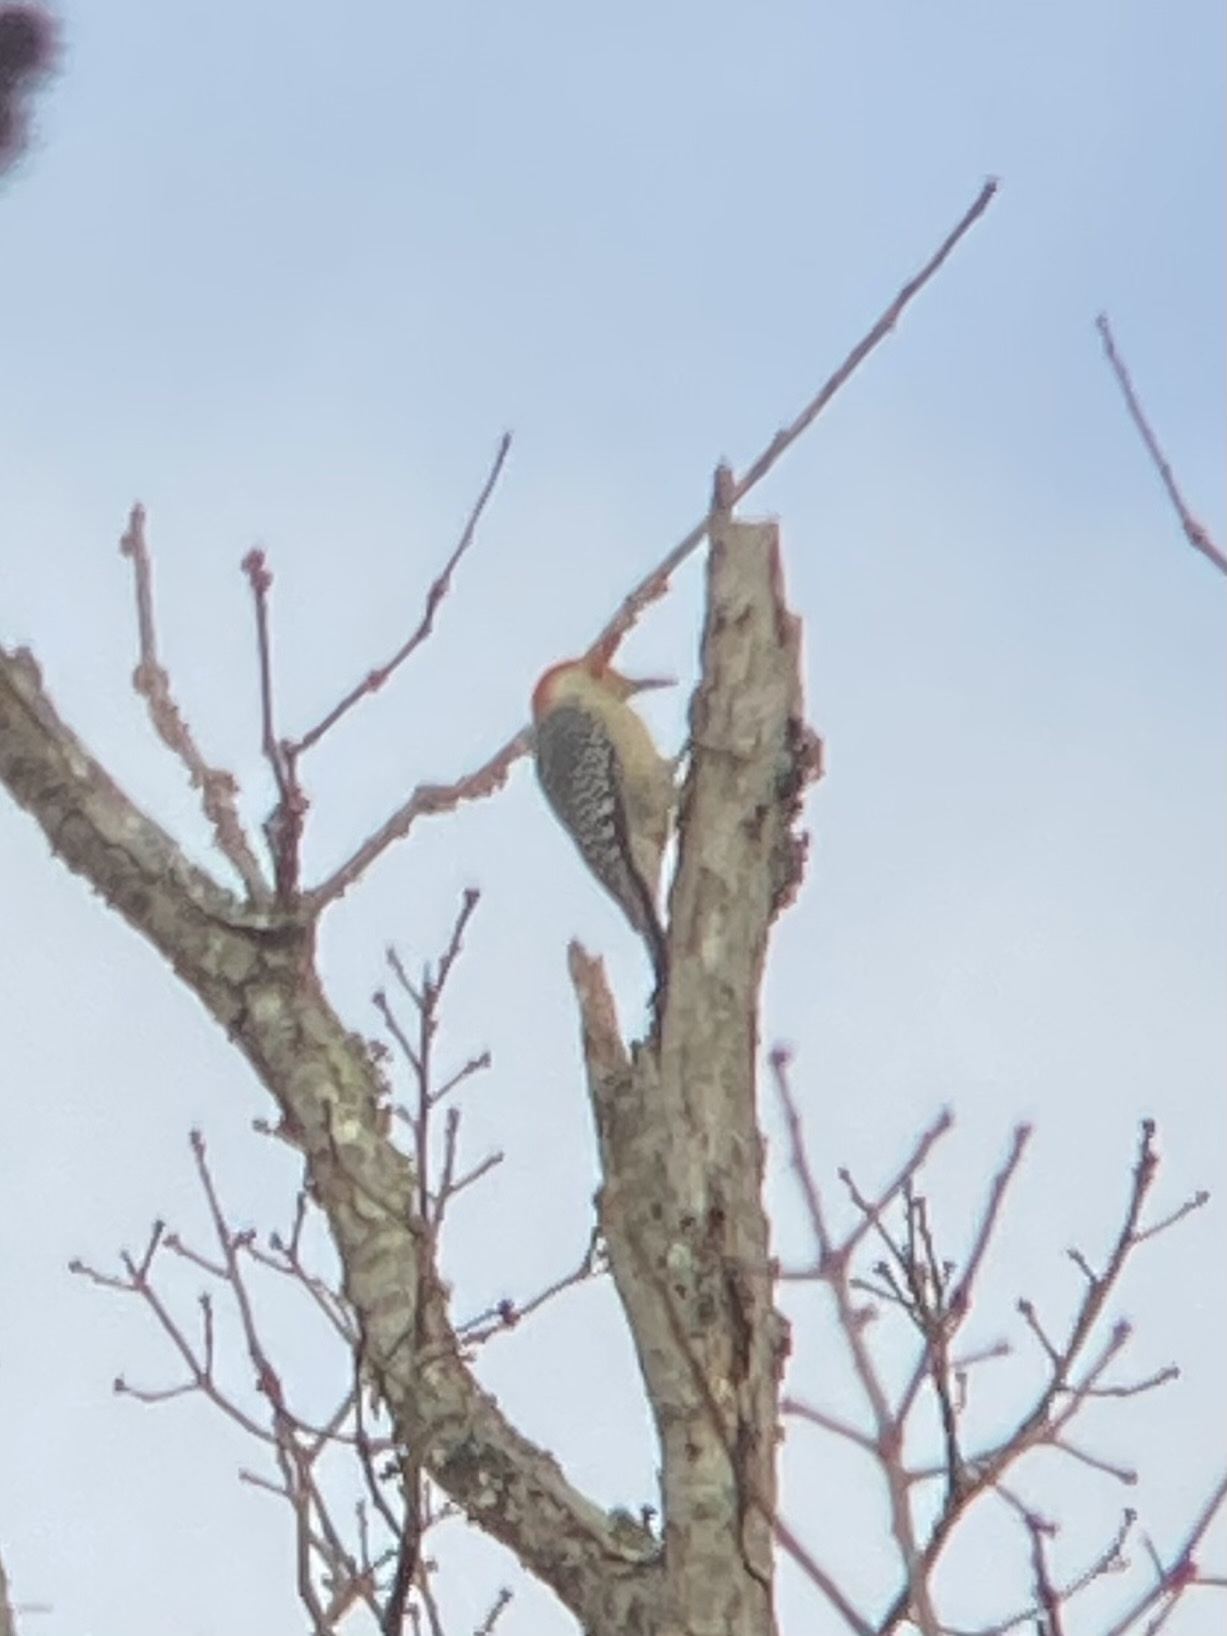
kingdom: Animalia
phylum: Chordata
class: Aves
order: Piciformes
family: Picidae
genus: Melanerpes
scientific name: Melanerpes carolinus
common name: Red-bellied woodpecker
